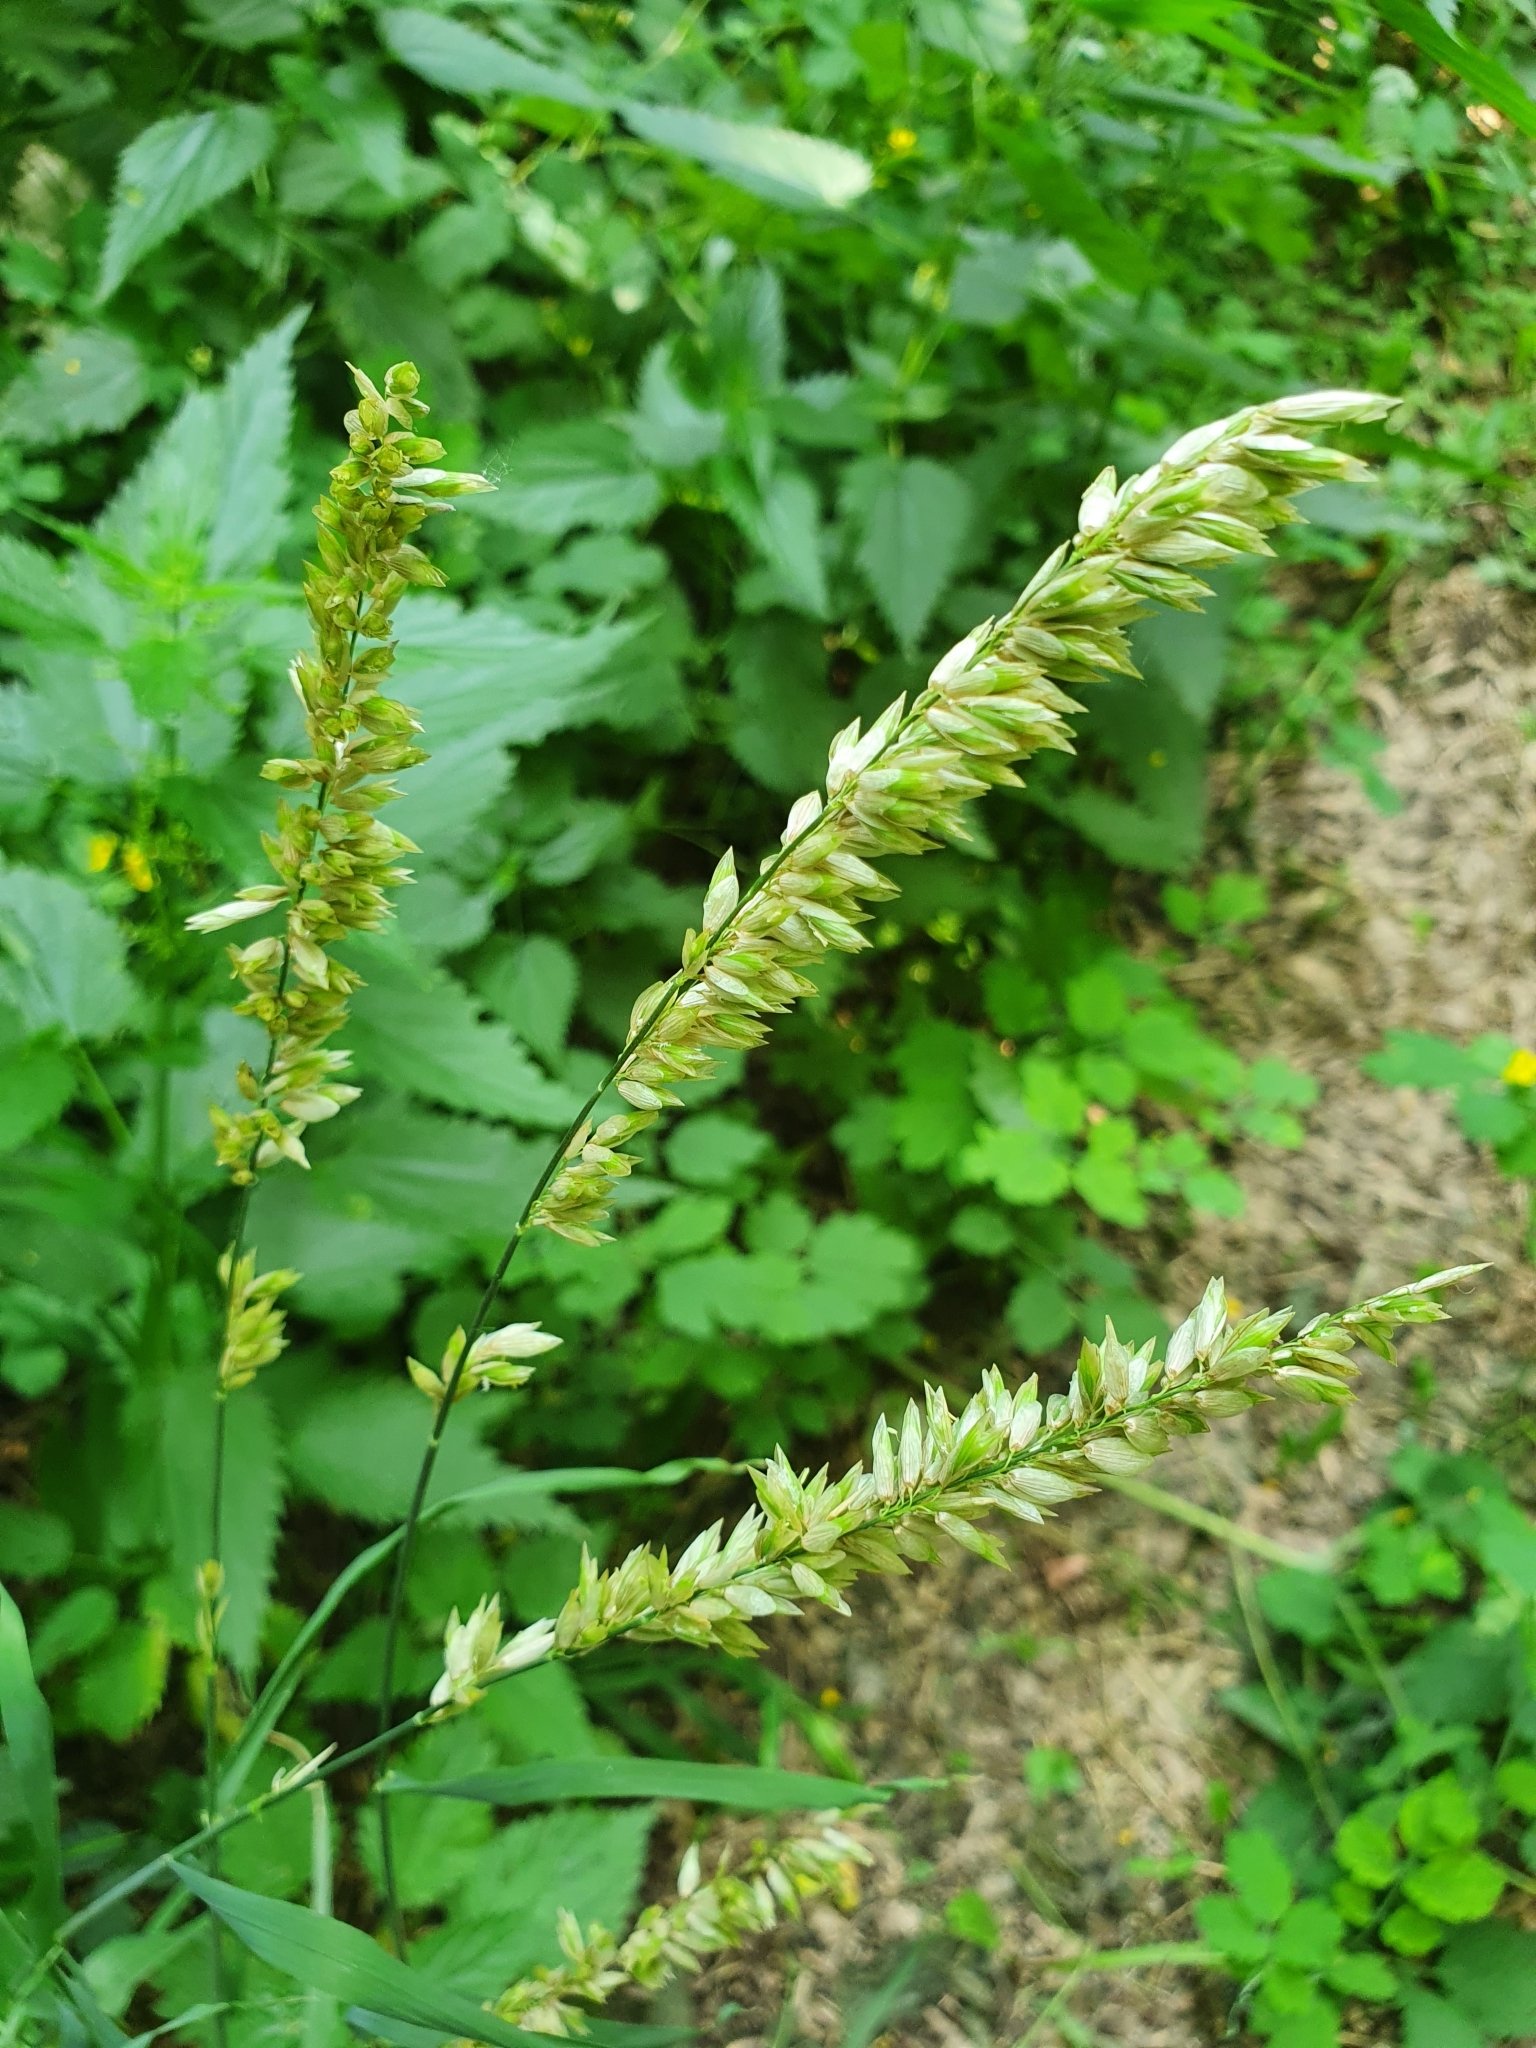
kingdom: Plantae
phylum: Tracheophyta
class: Liliopsida
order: Poales
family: Poaceae
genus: Melica
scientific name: Melica altissima
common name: Siberian melicgrass
